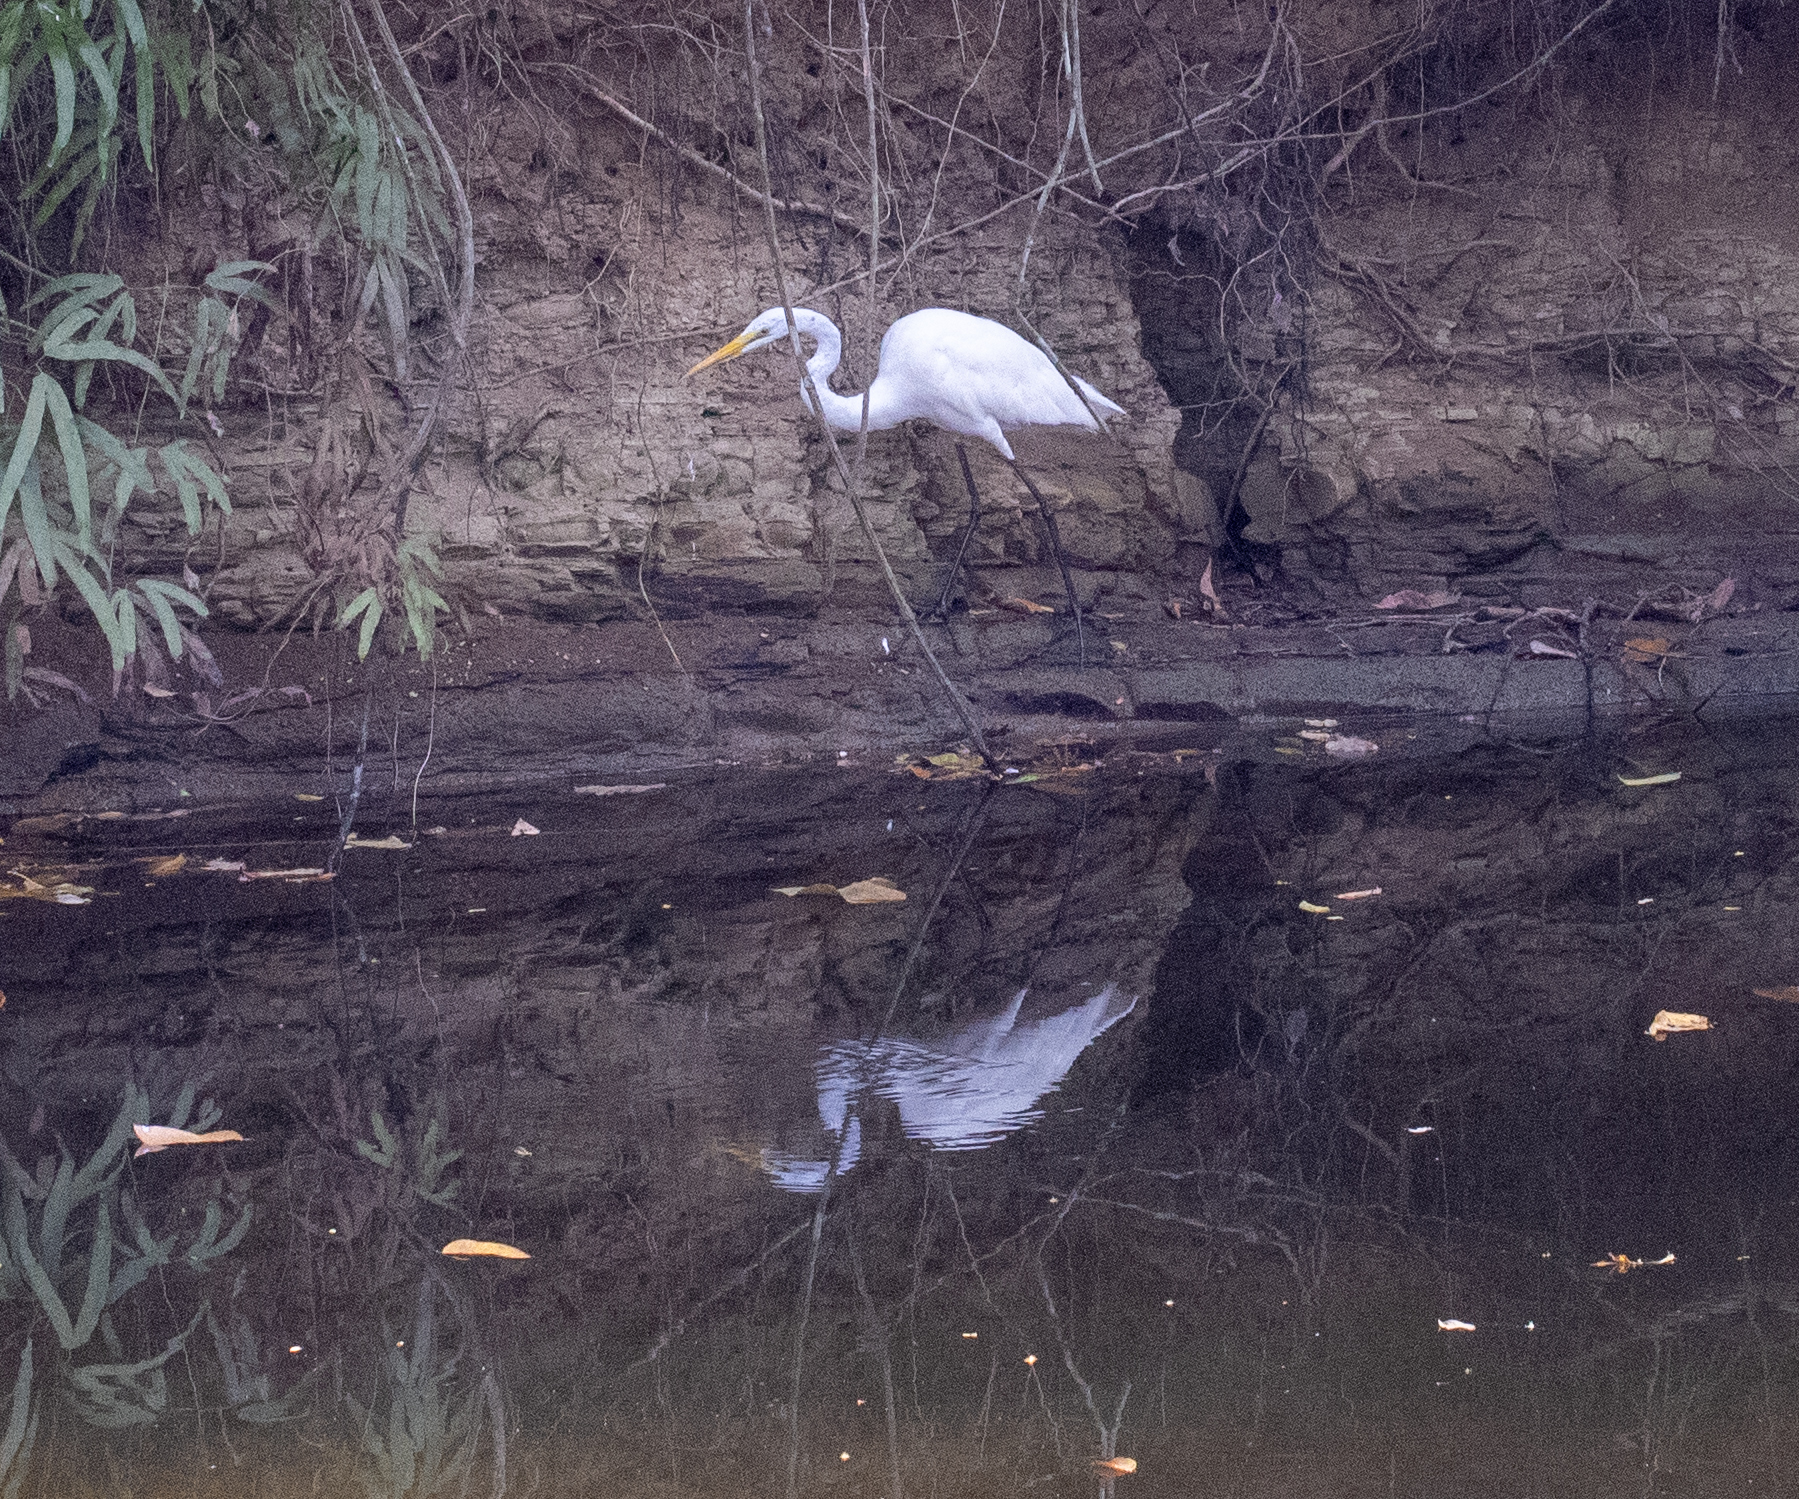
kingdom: Animalia
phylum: Chordata
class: Aves
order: Pelecaniformes
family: Ardeidae
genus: Ardea
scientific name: Ardea alba
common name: Great egret
